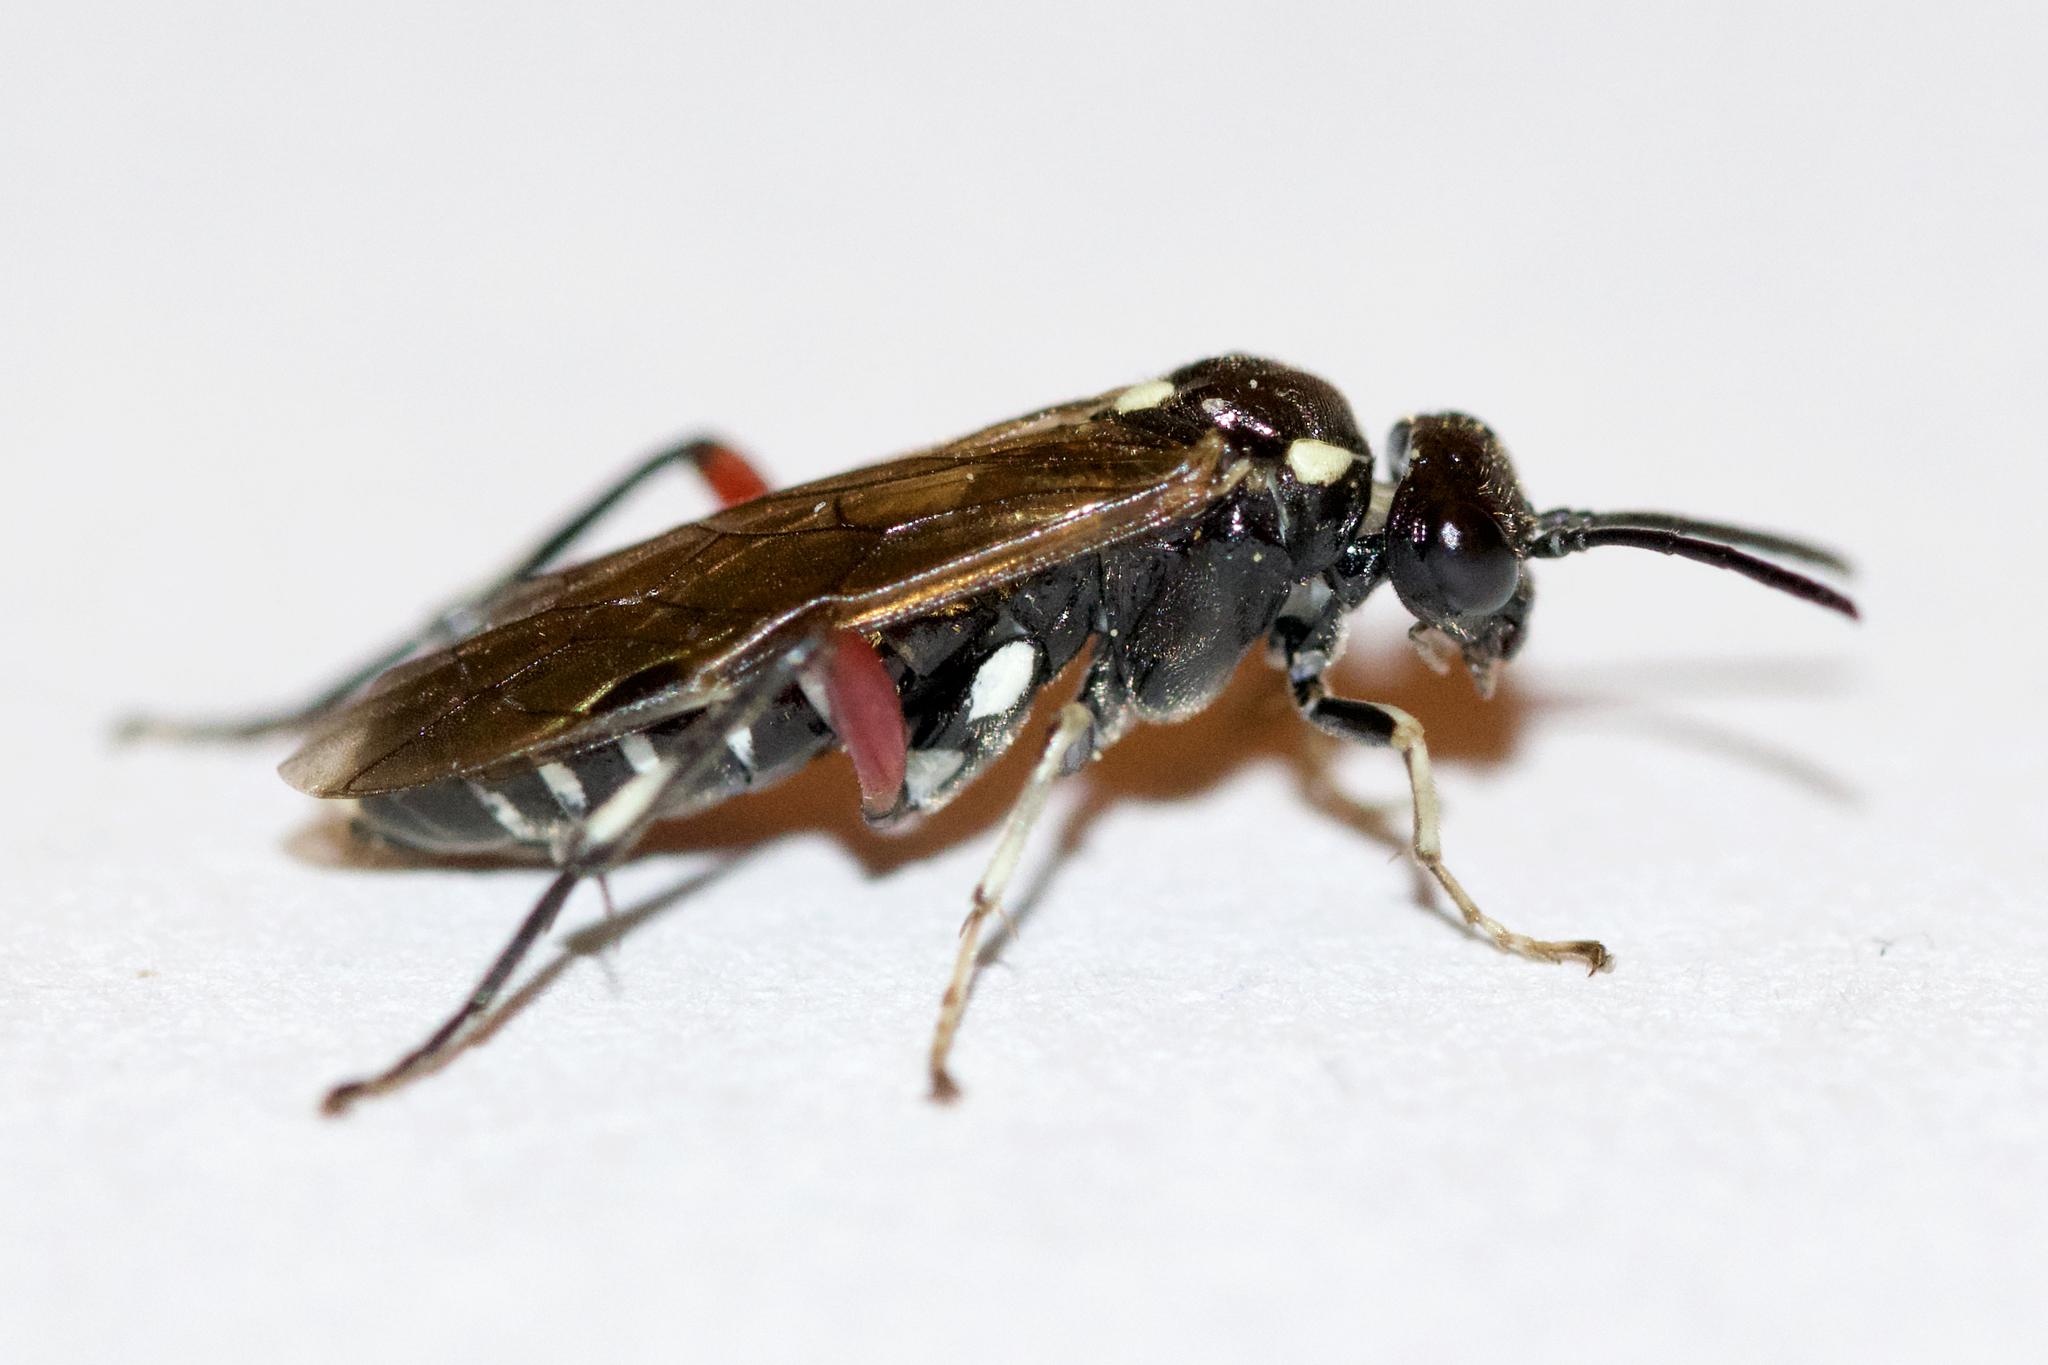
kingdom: Animalia
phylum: Arthropoda
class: Insecta
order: Hymenoptera
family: Tenthredinidae
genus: Macrophya
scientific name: Macrophya punctumalbum
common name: Sawfly
